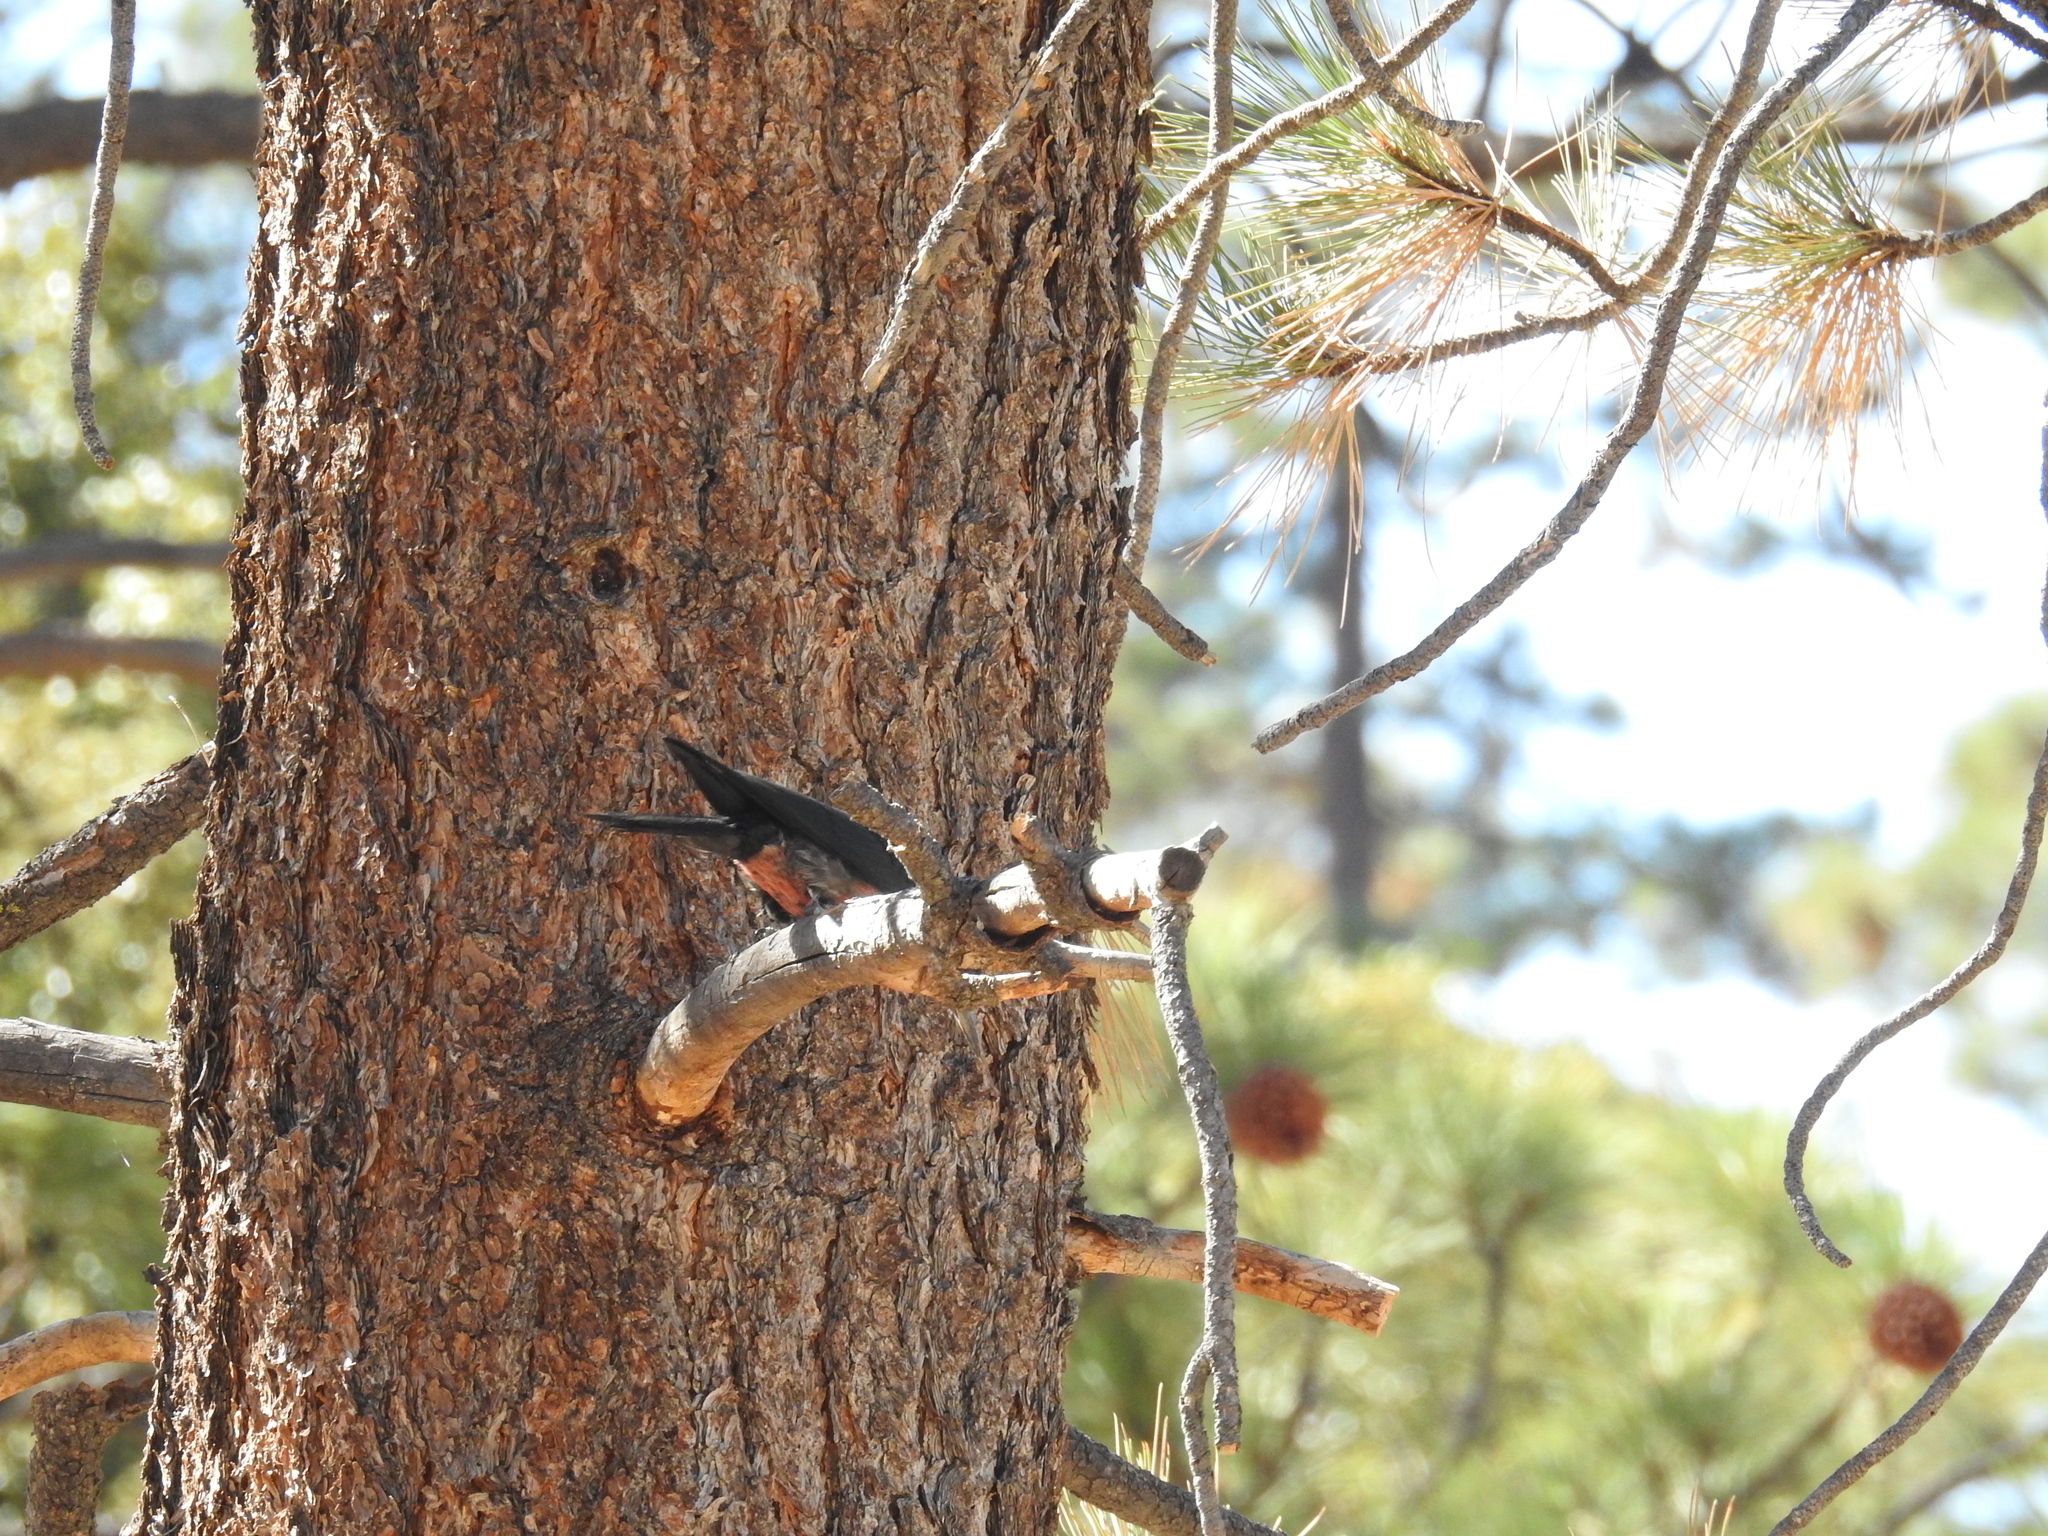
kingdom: Animalia
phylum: Chordata
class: Aves
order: Piciformes
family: Picidae
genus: Melanerpes
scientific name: Melanerpes lewis
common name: Lewis's woodpecker
